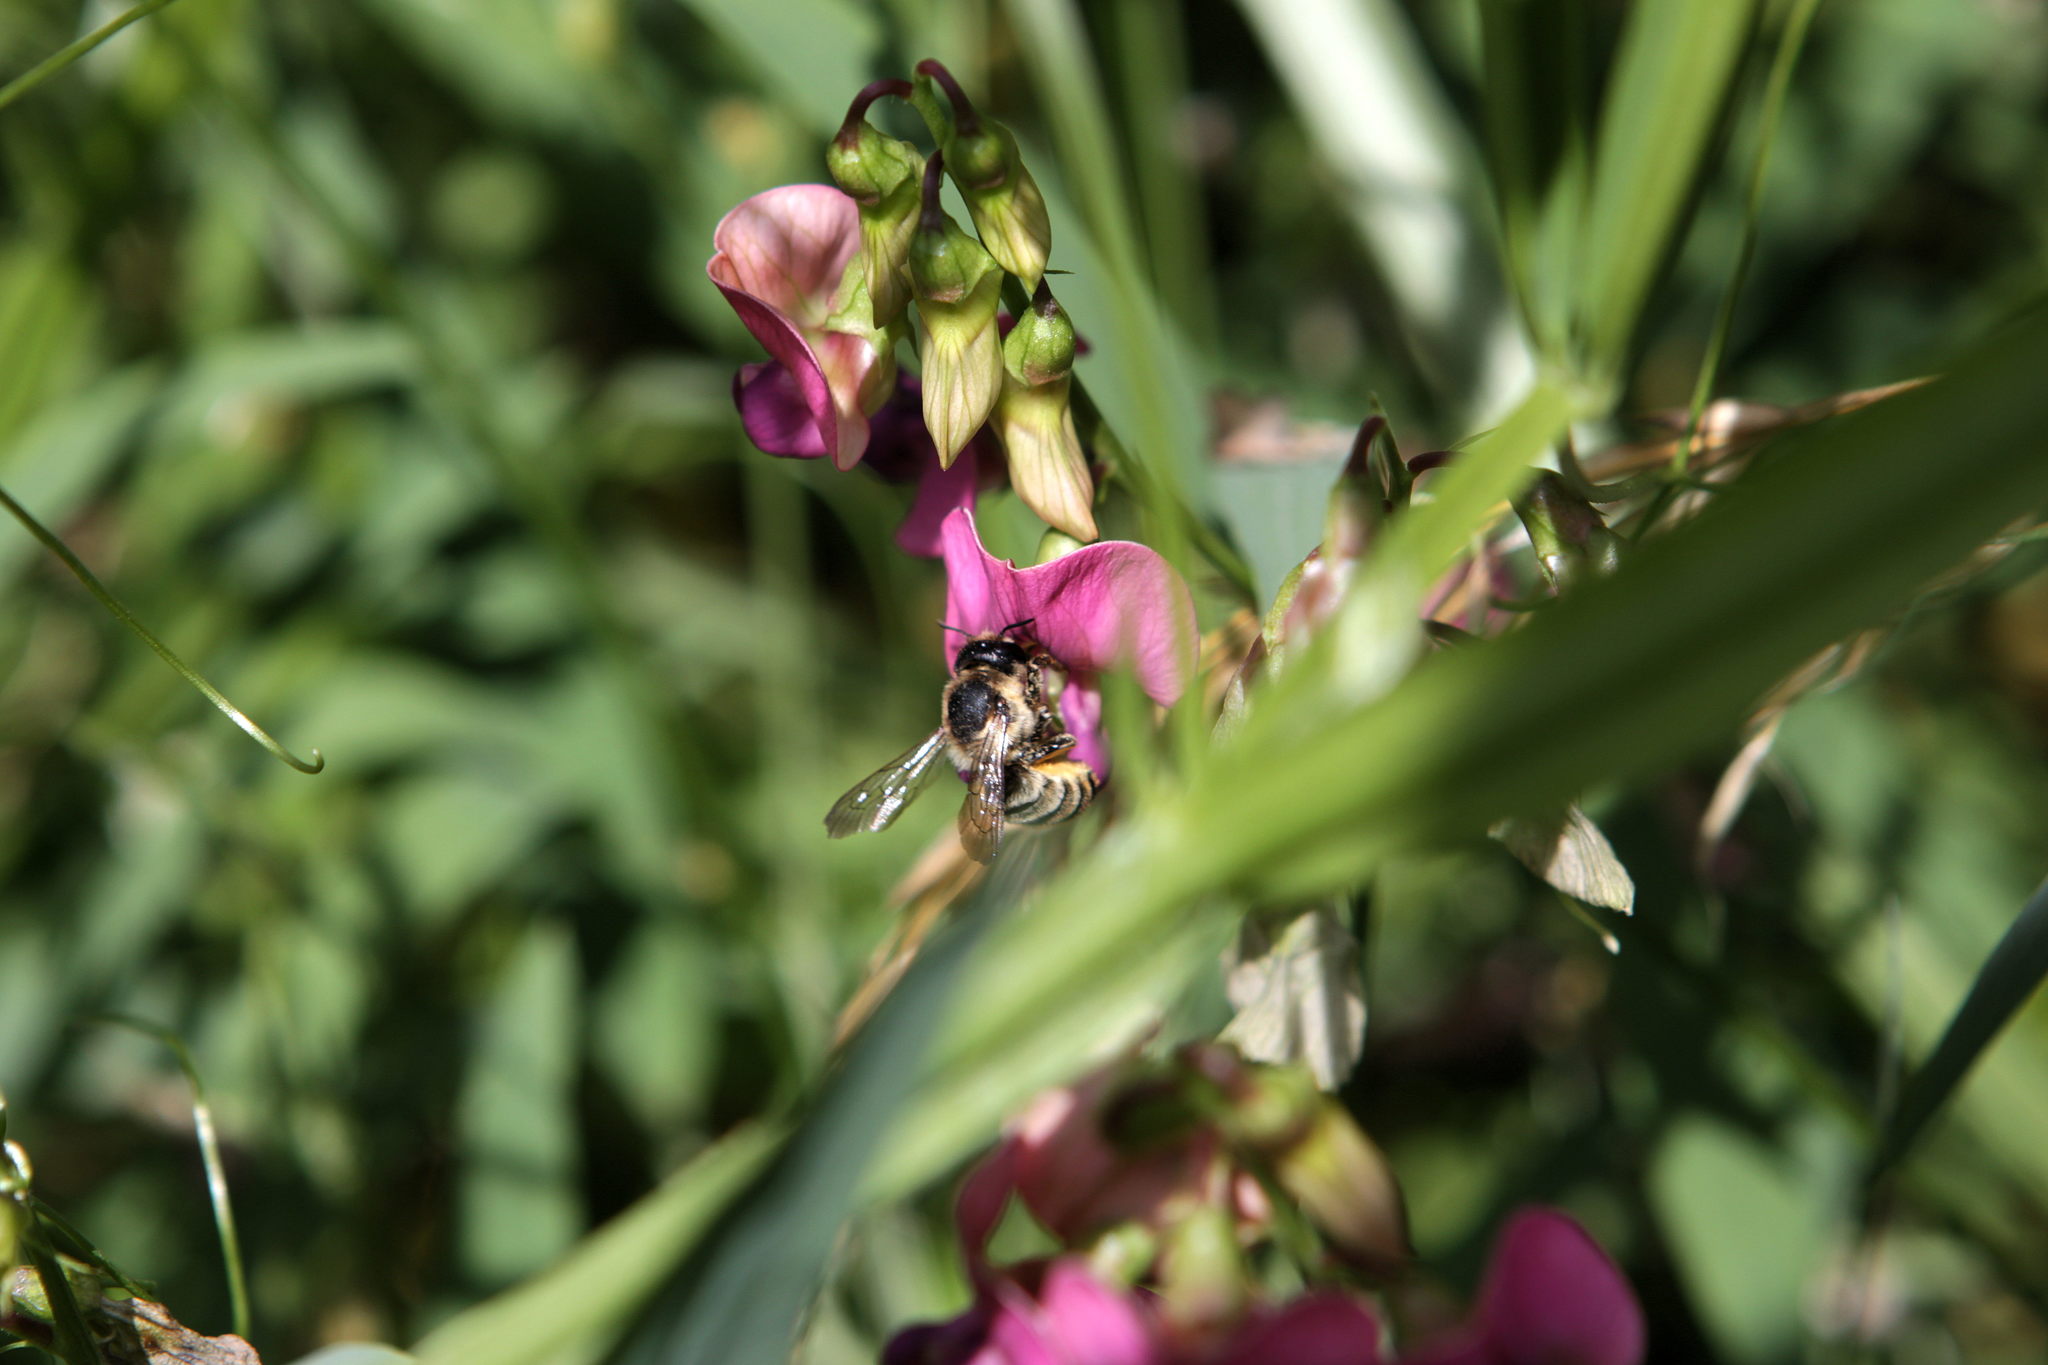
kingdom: Animalia
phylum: Arthropoda
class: Insecta
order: Hymenoptera
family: Megachilidae
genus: Megachile
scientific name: Megachile ericetorum
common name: Leafcutter bee
